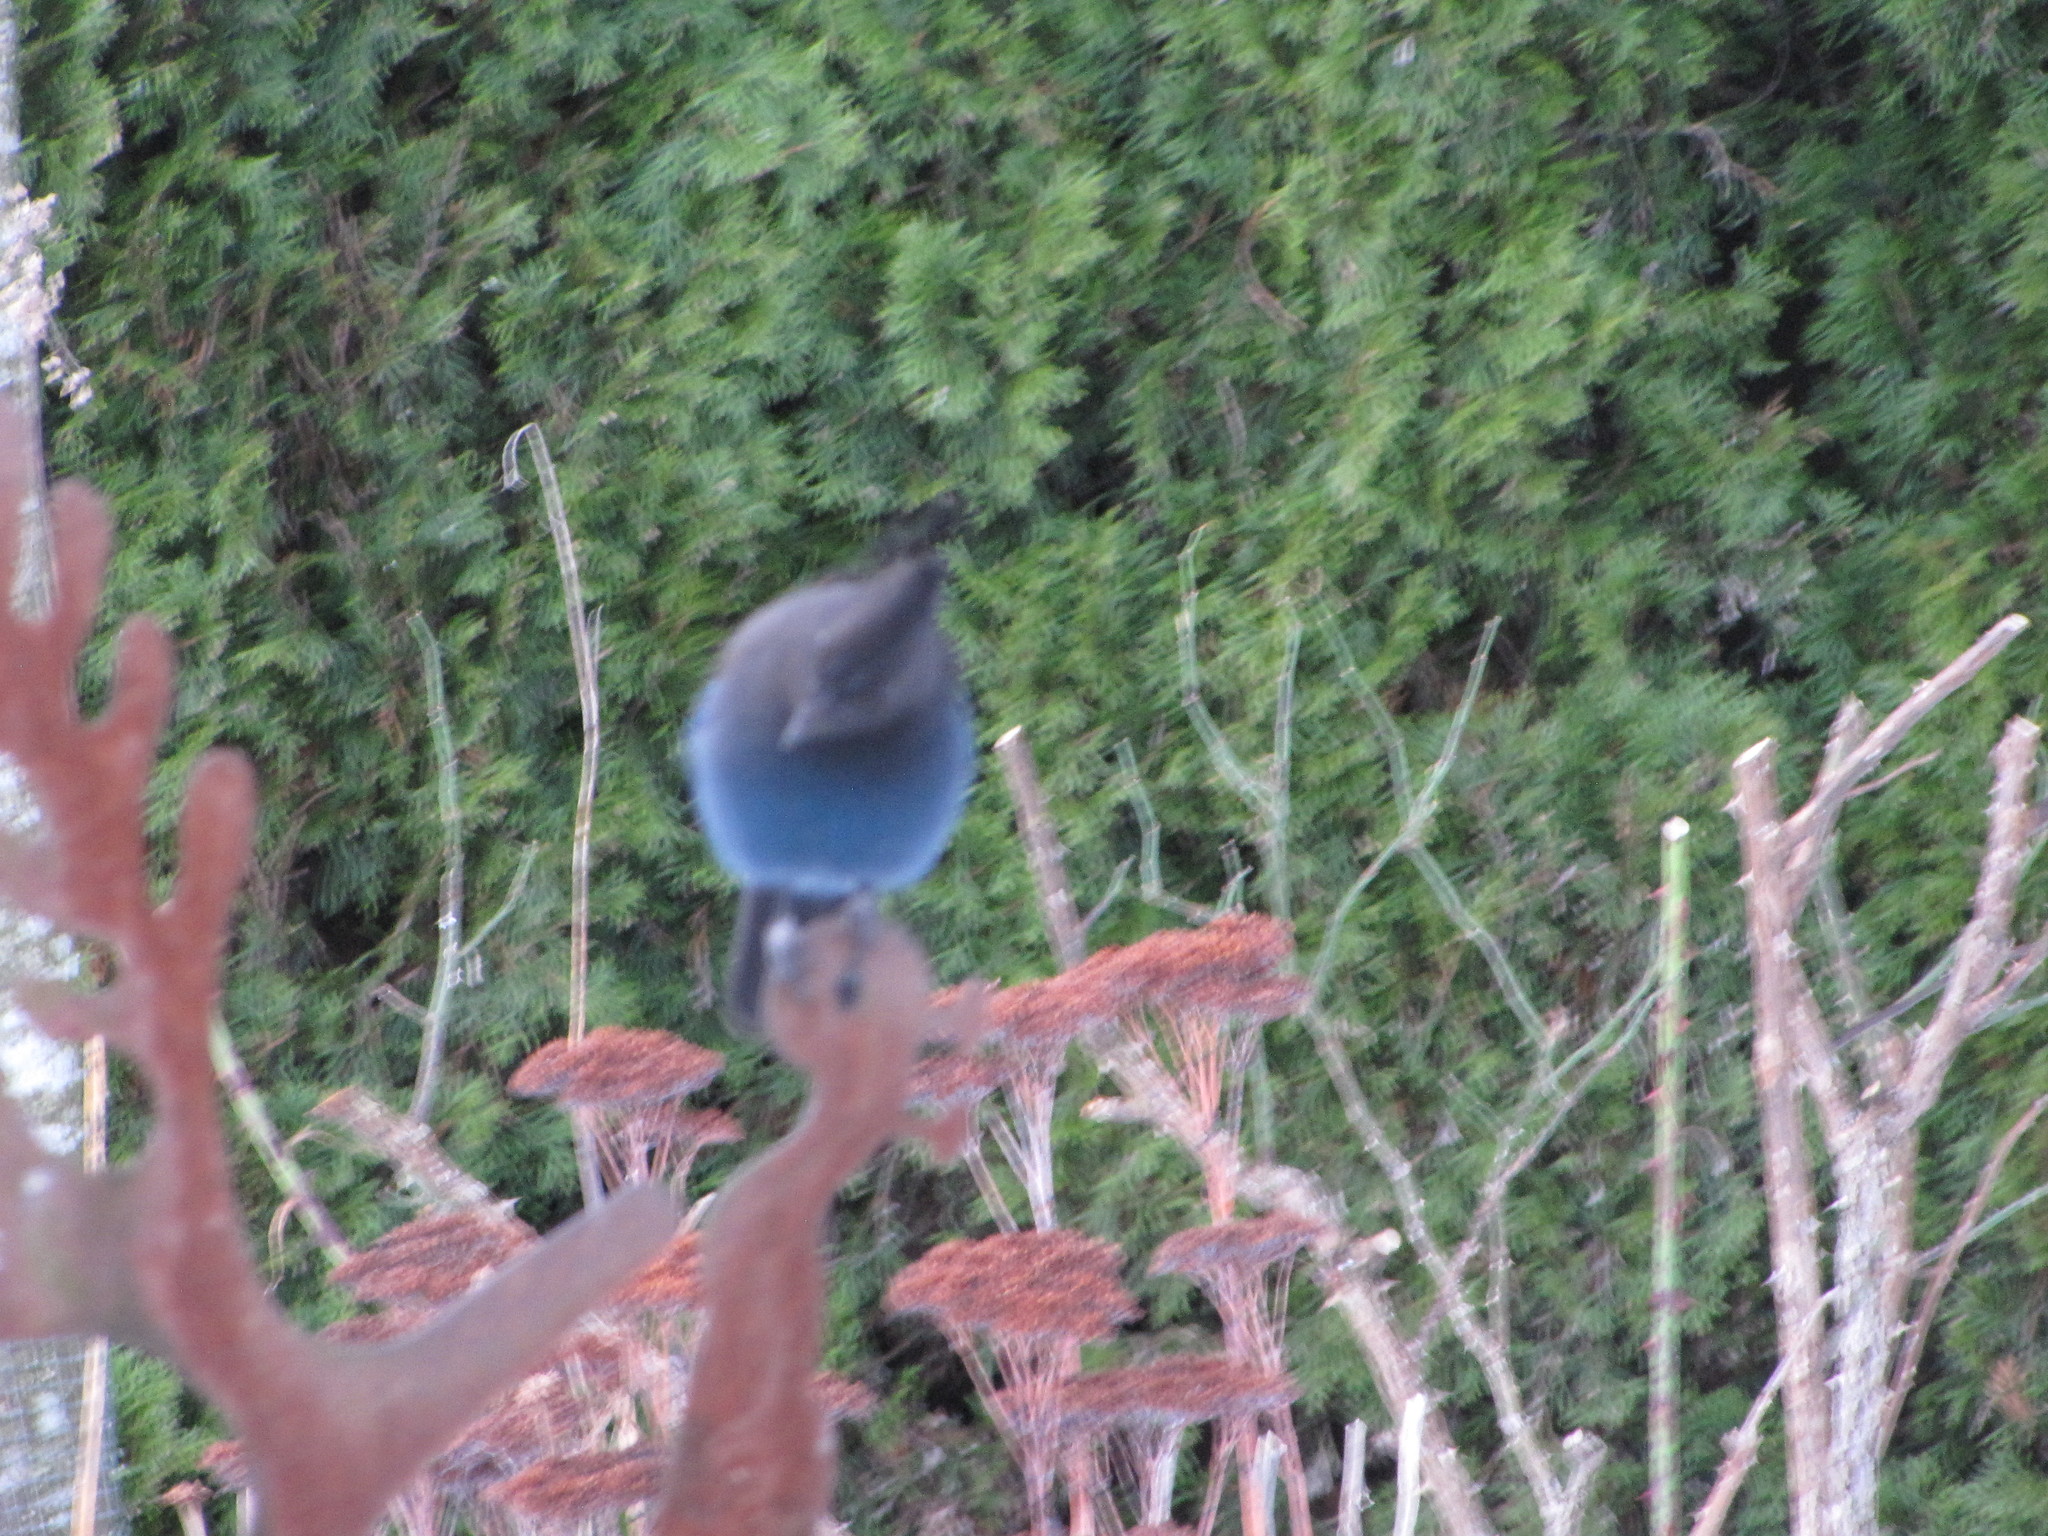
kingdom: Animalia
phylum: Chordata
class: Aves
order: Passeriformes
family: Corvidae
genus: Cyanocitta
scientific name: Cyanocitta stelleri
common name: Steller's jay
